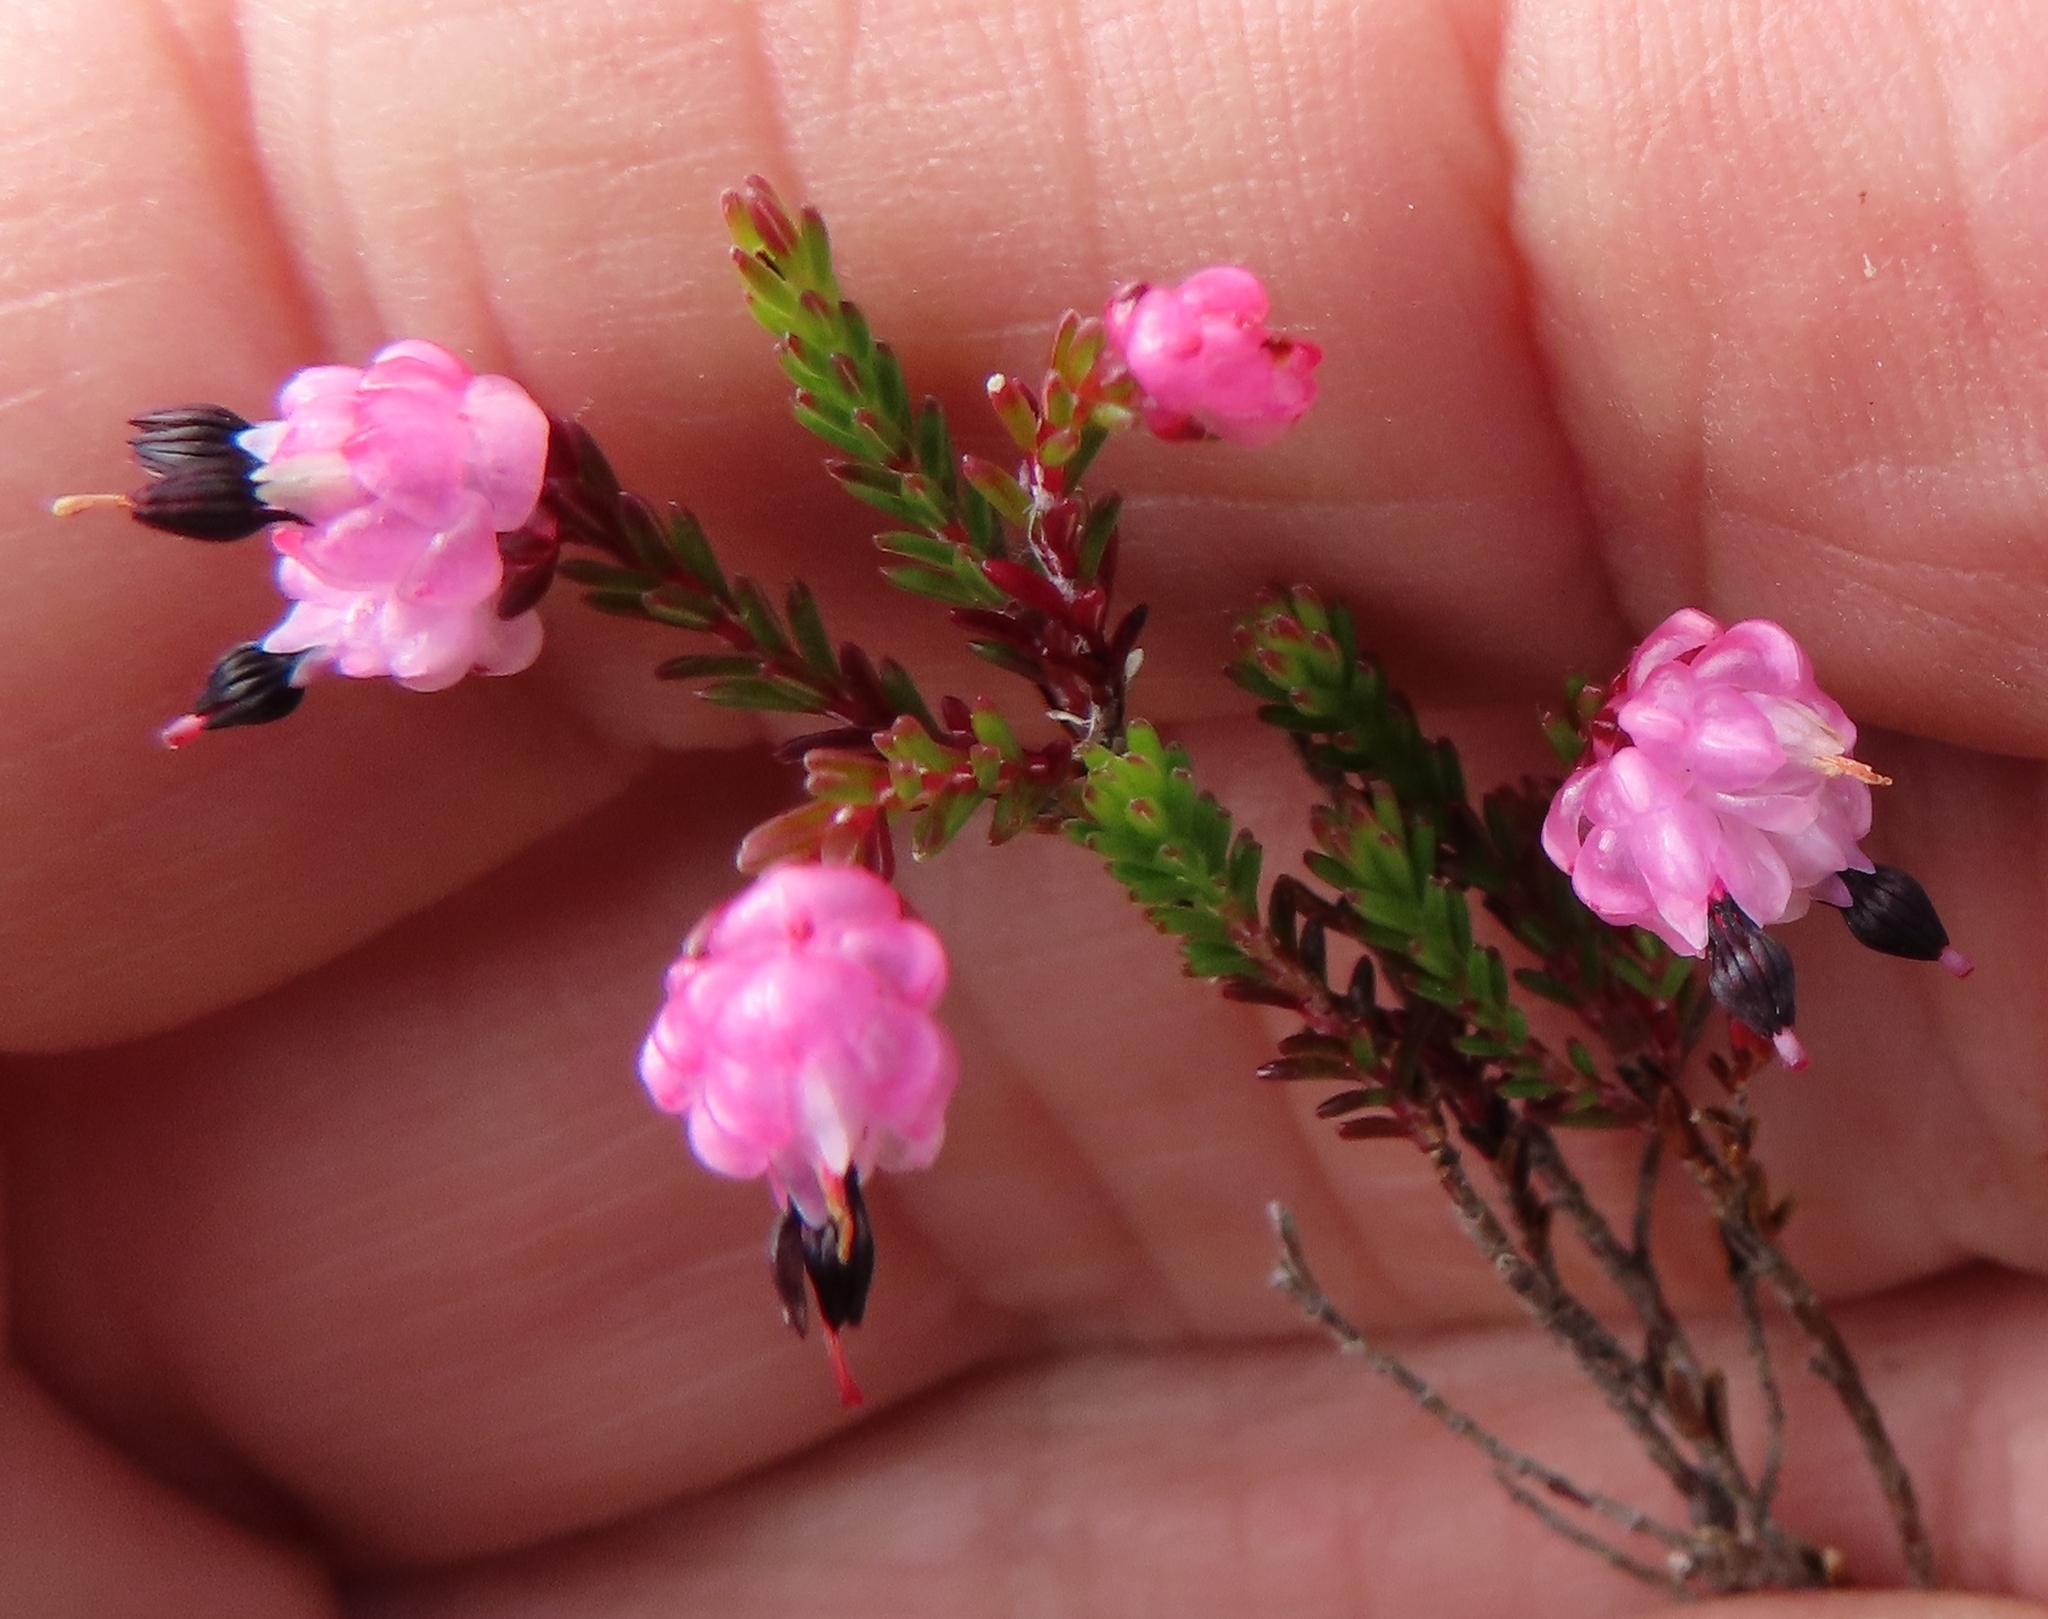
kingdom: Plantae
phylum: Tracheophyta
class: Magnoliopsida
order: Ericales
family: Ericaceae
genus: Erica
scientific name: Erica spumosa
